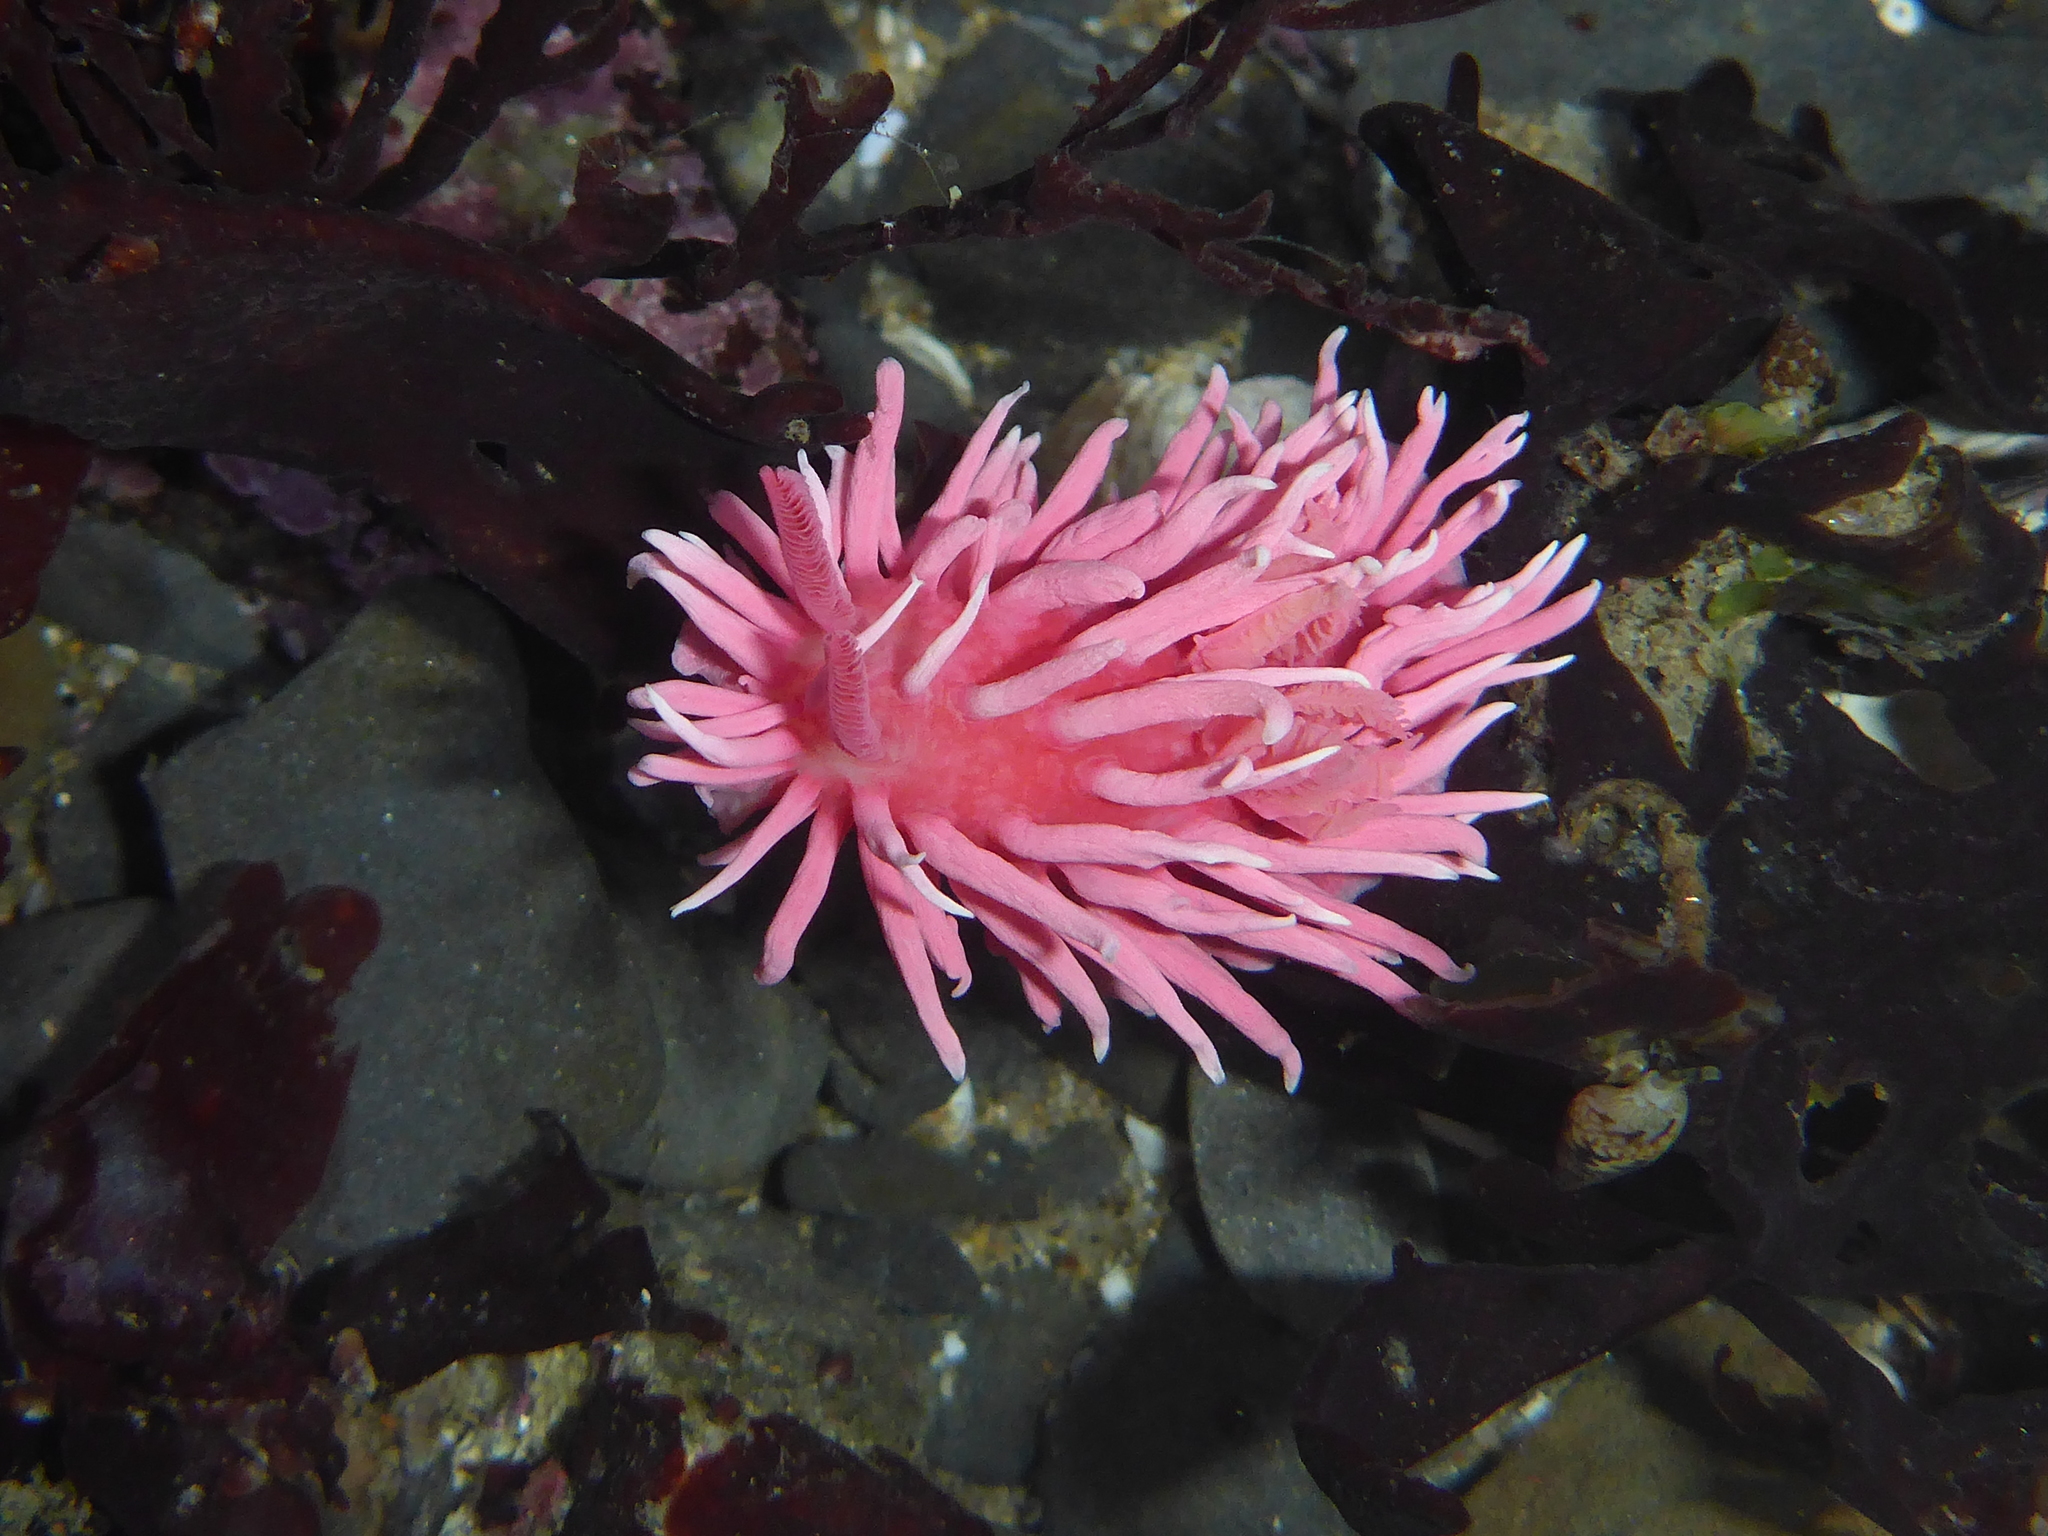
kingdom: Animalia
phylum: Mollusca
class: Gastropoda
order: Nudibranchia
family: Goniodorididae
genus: Okenia
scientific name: Okenia
